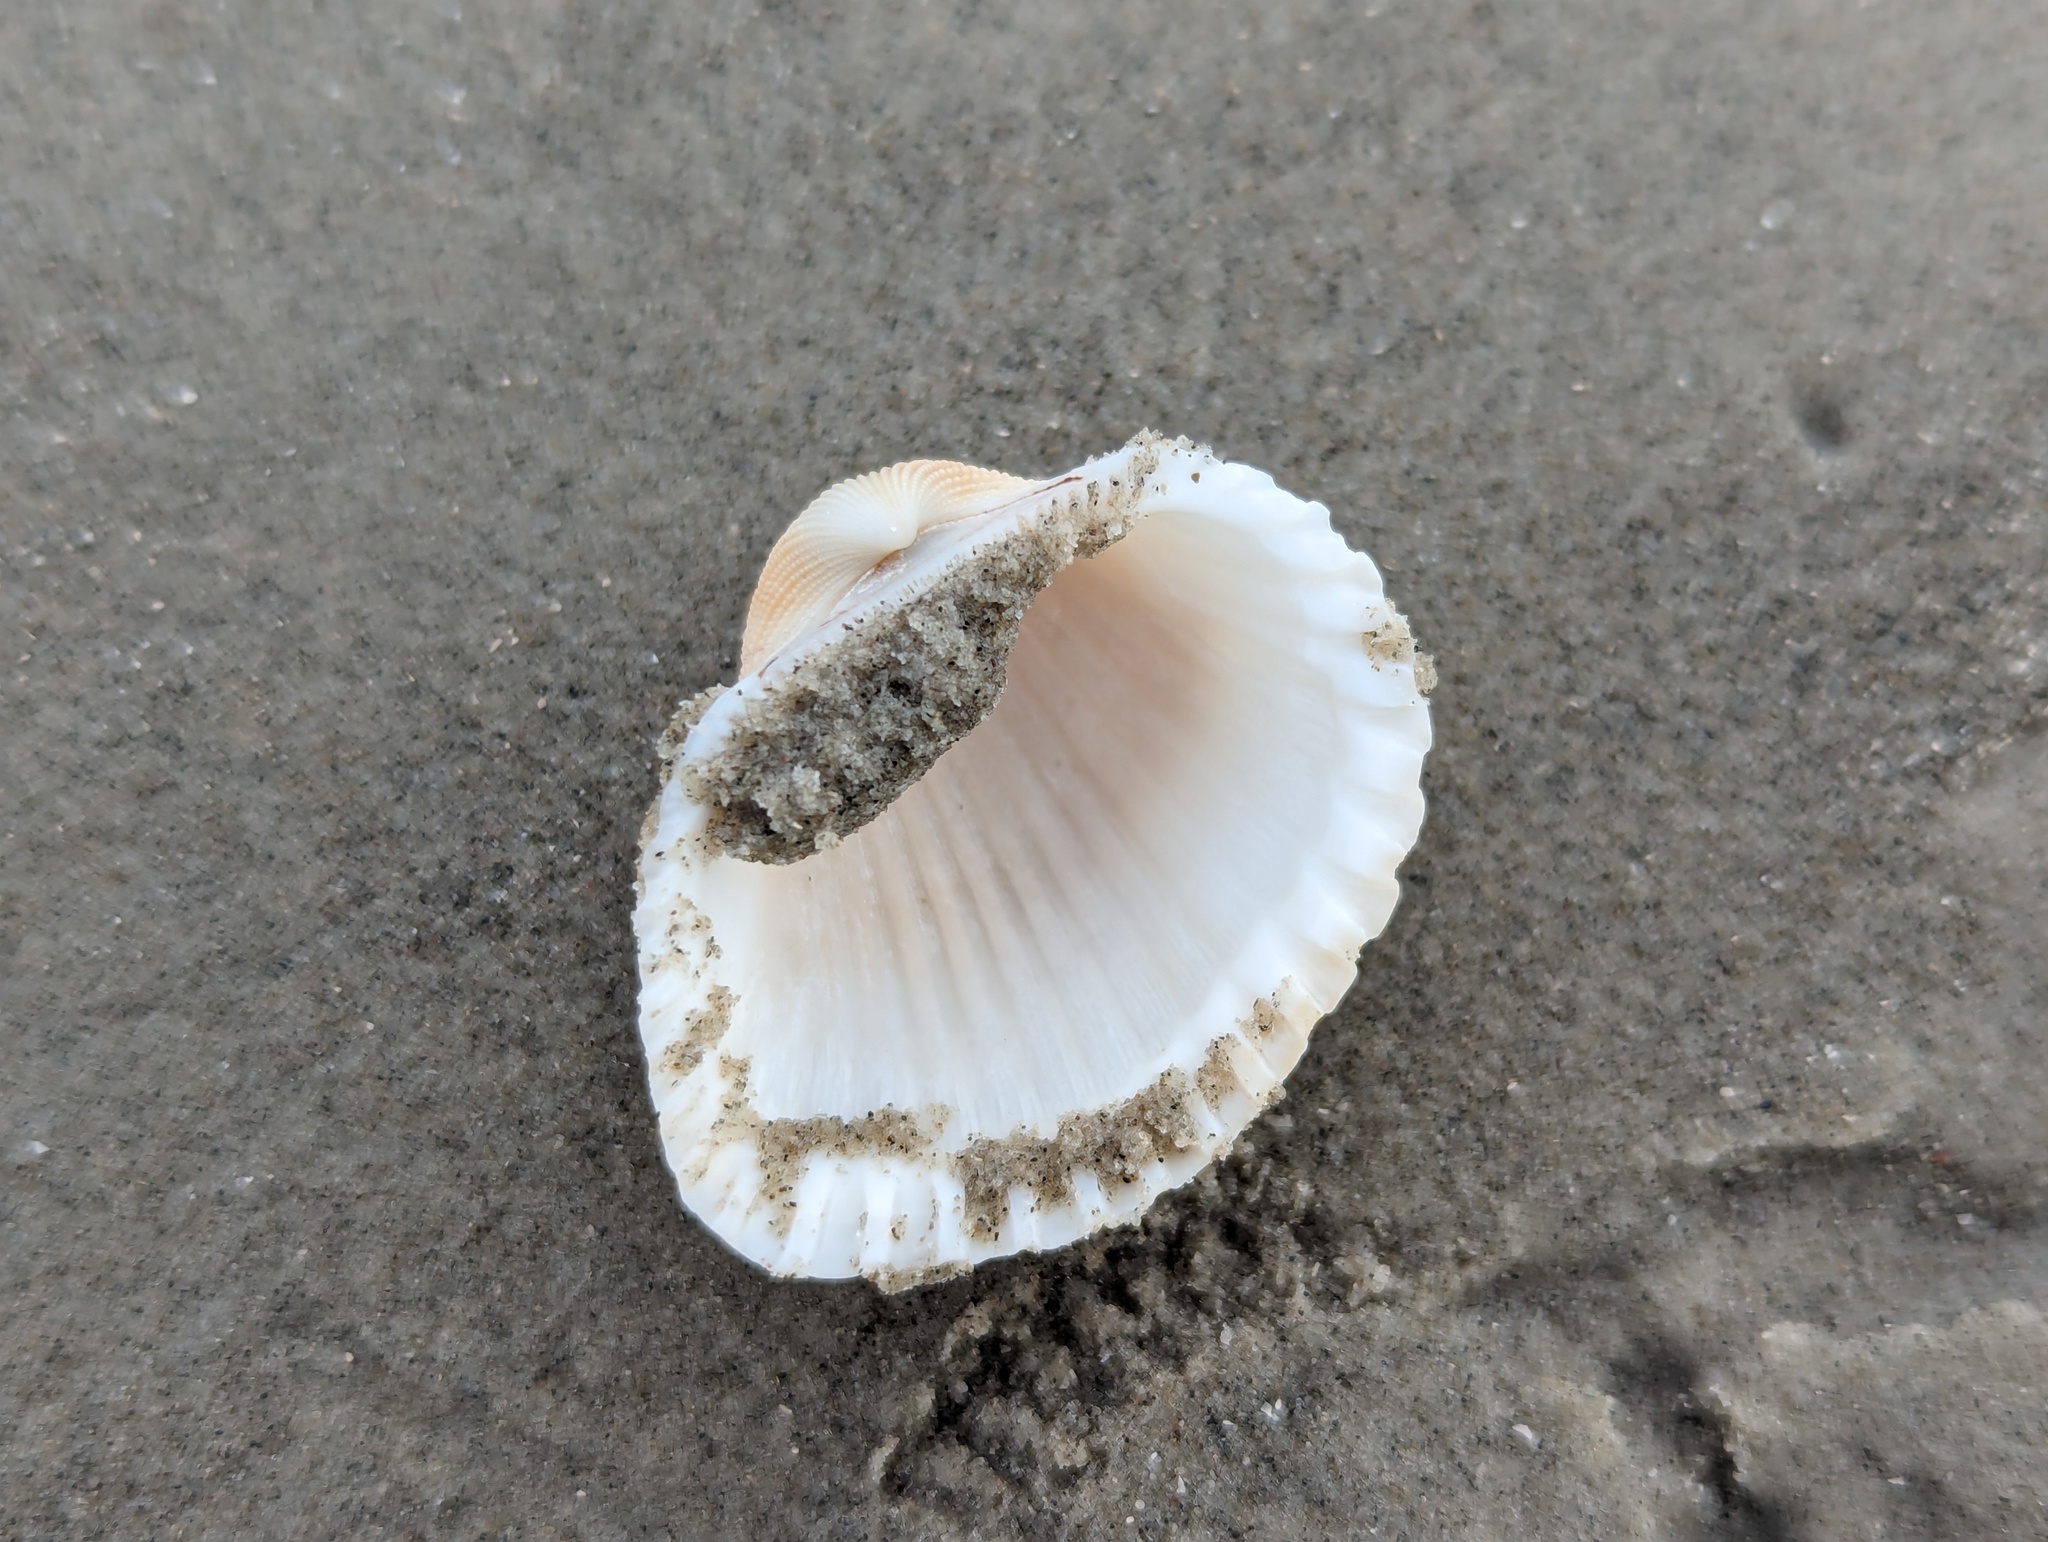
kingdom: Animalia
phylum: Mollusca
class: Bivalvia
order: Arcida
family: Arcidae
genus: Anadara
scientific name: Anadara brasiliana
